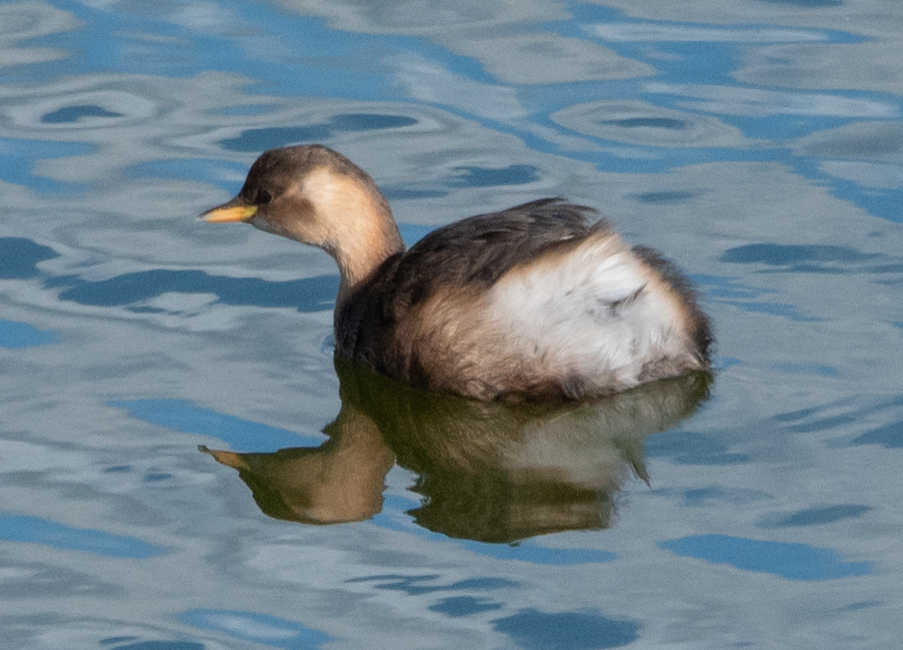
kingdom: Animalia
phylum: Chordata
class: Aves
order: Podicipediformes
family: Podicipedidae
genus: Tachybaptus
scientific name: Tachybaptus ruficollis
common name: Little grebe
